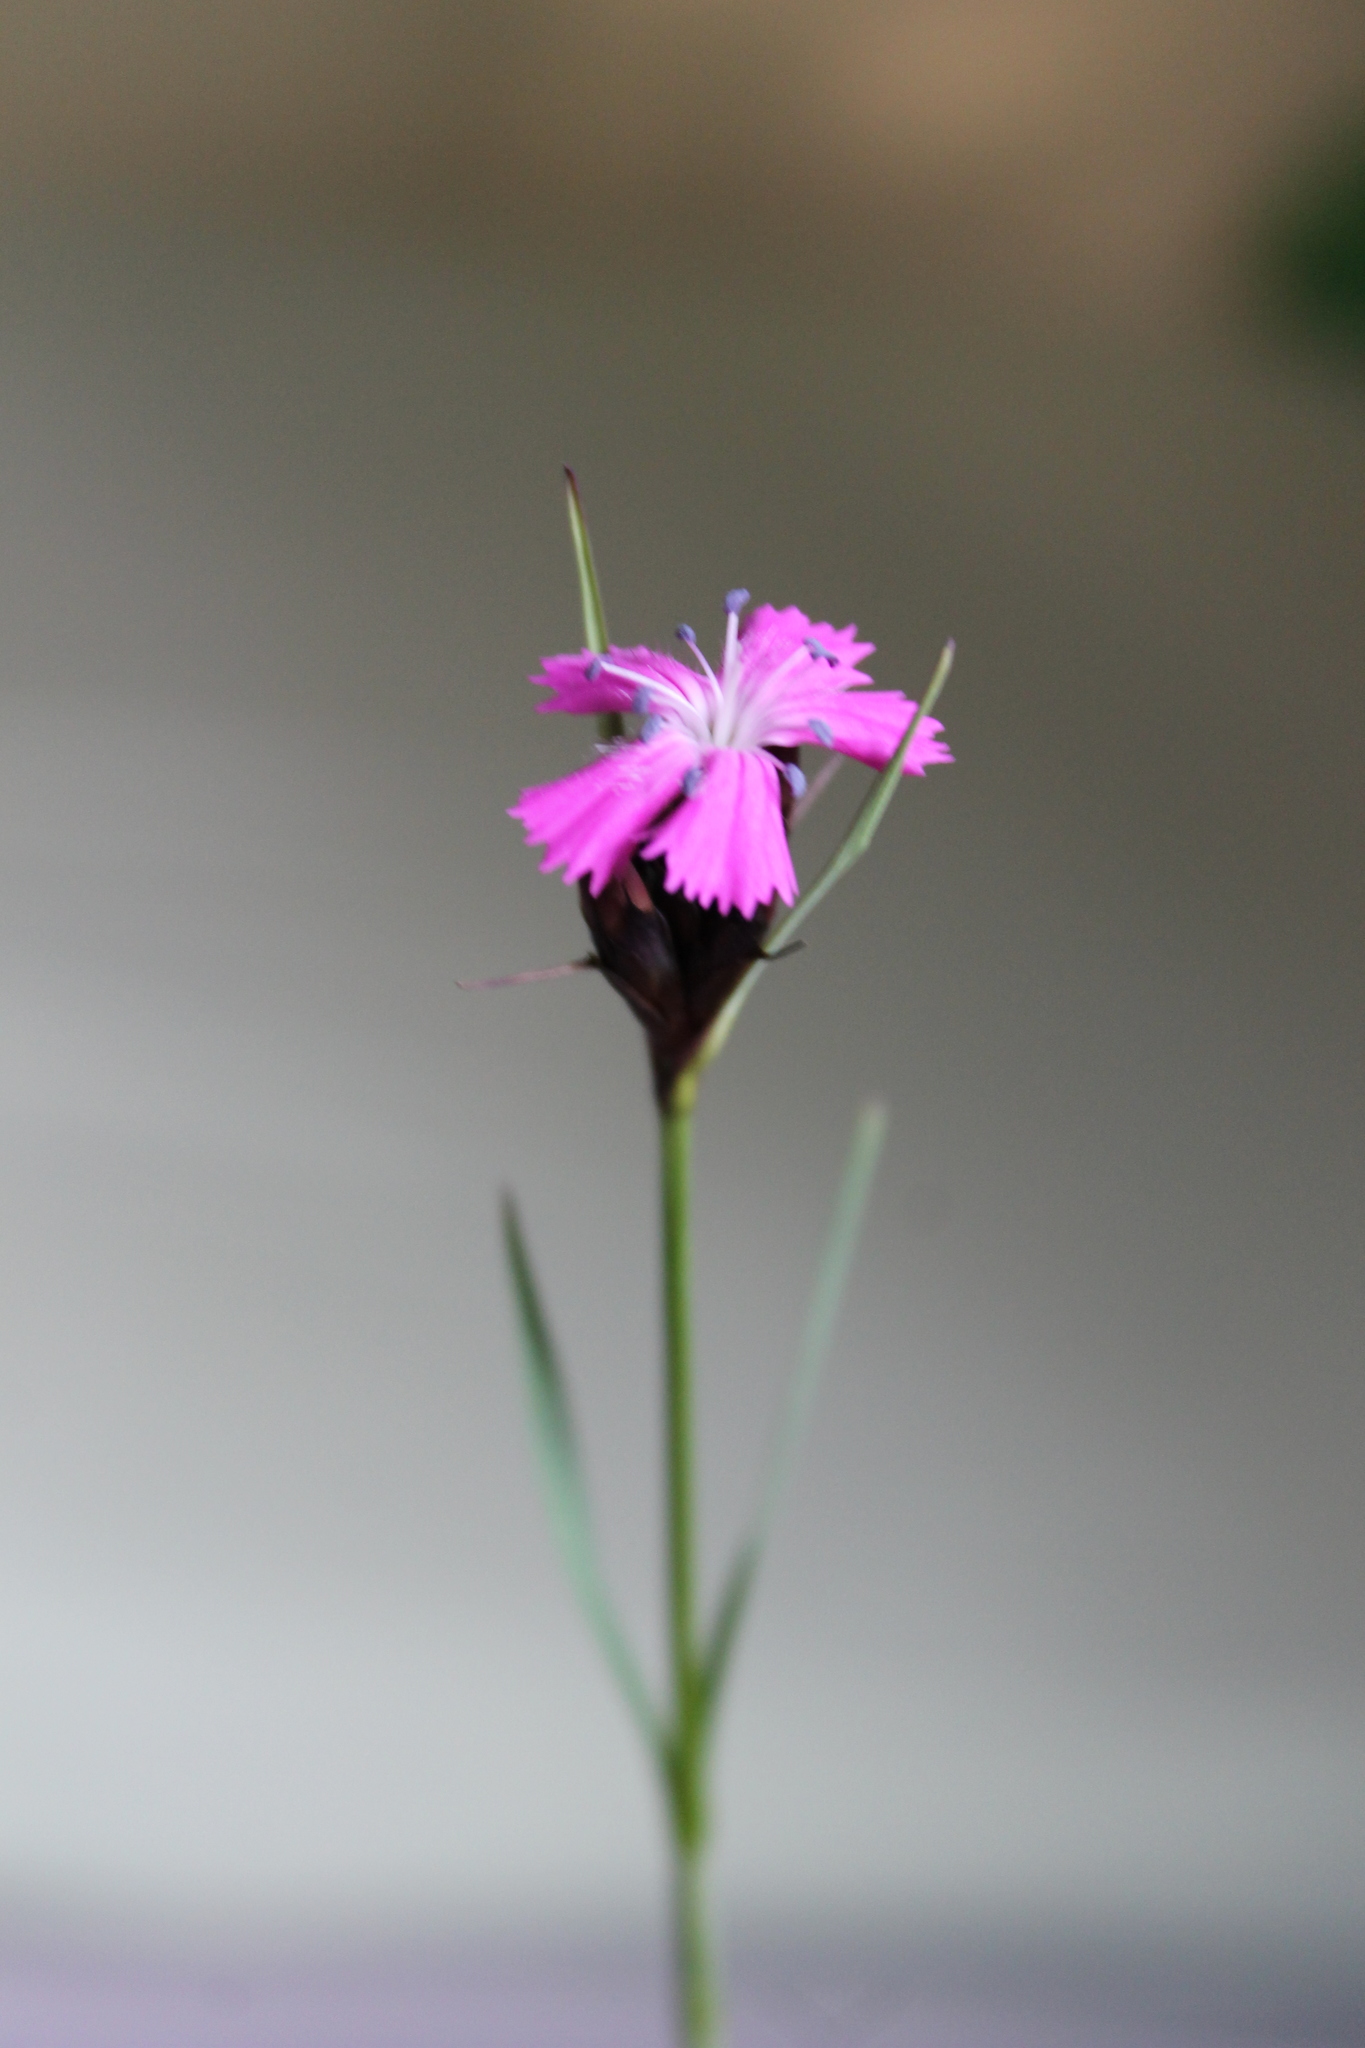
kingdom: Plantae
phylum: Tracheophyta
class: Magnoliopsida
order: Caryophyllales
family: Caryophyllaceae
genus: Dianthus
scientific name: Dianthus carthusianorum
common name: Carthusian pink
